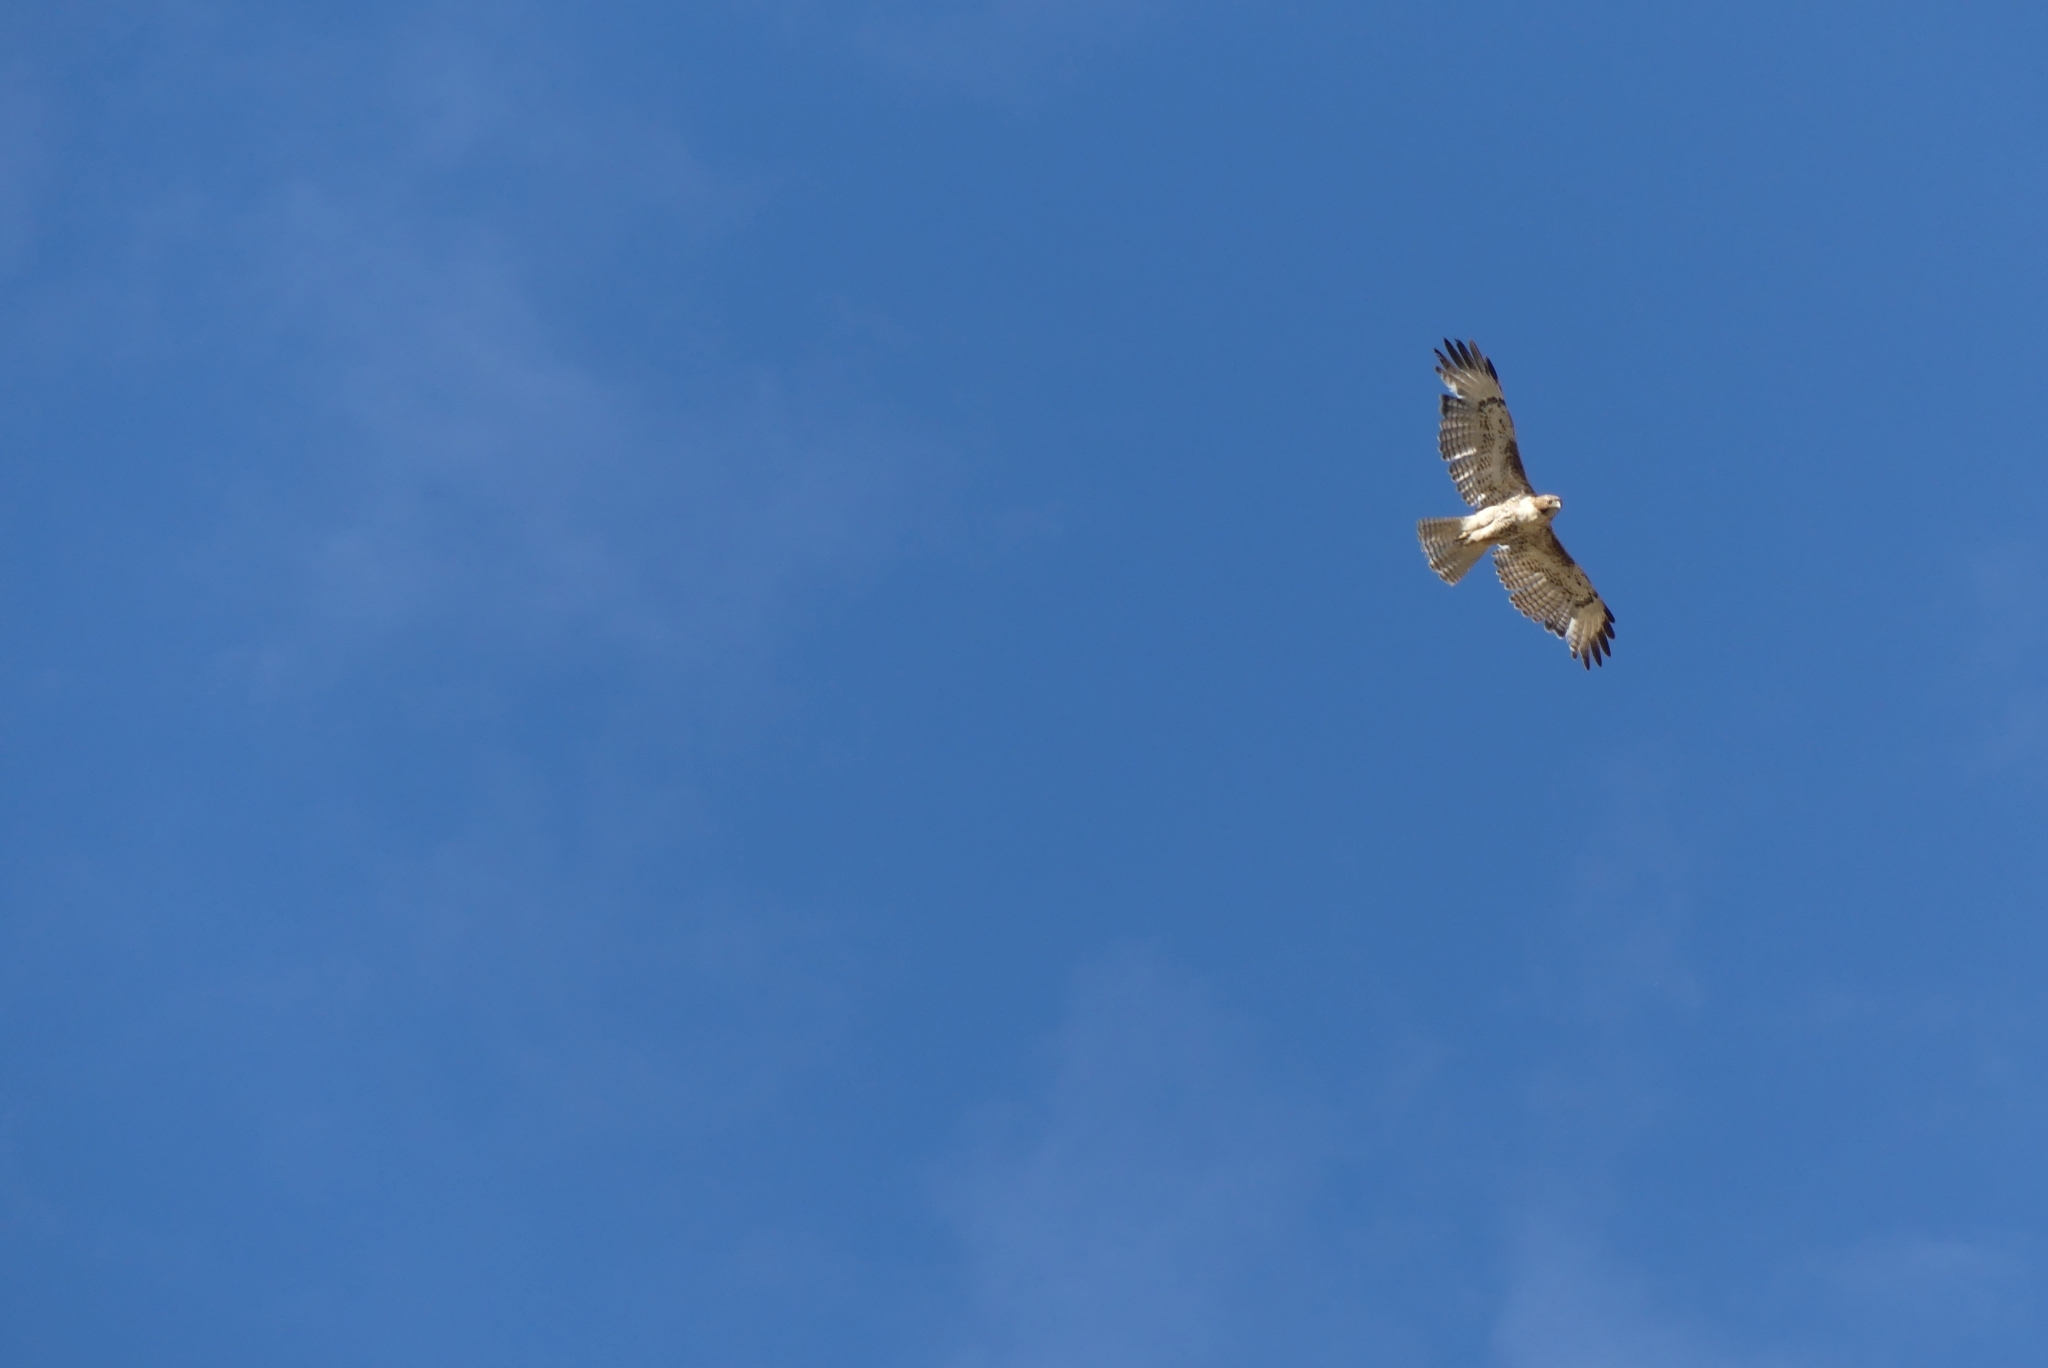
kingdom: Animalia
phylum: Chordata
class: Aves
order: Accipitriformes
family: Accipitridae
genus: Buteo
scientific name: Buteo jamaicensis
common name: Red-tailed hawk
